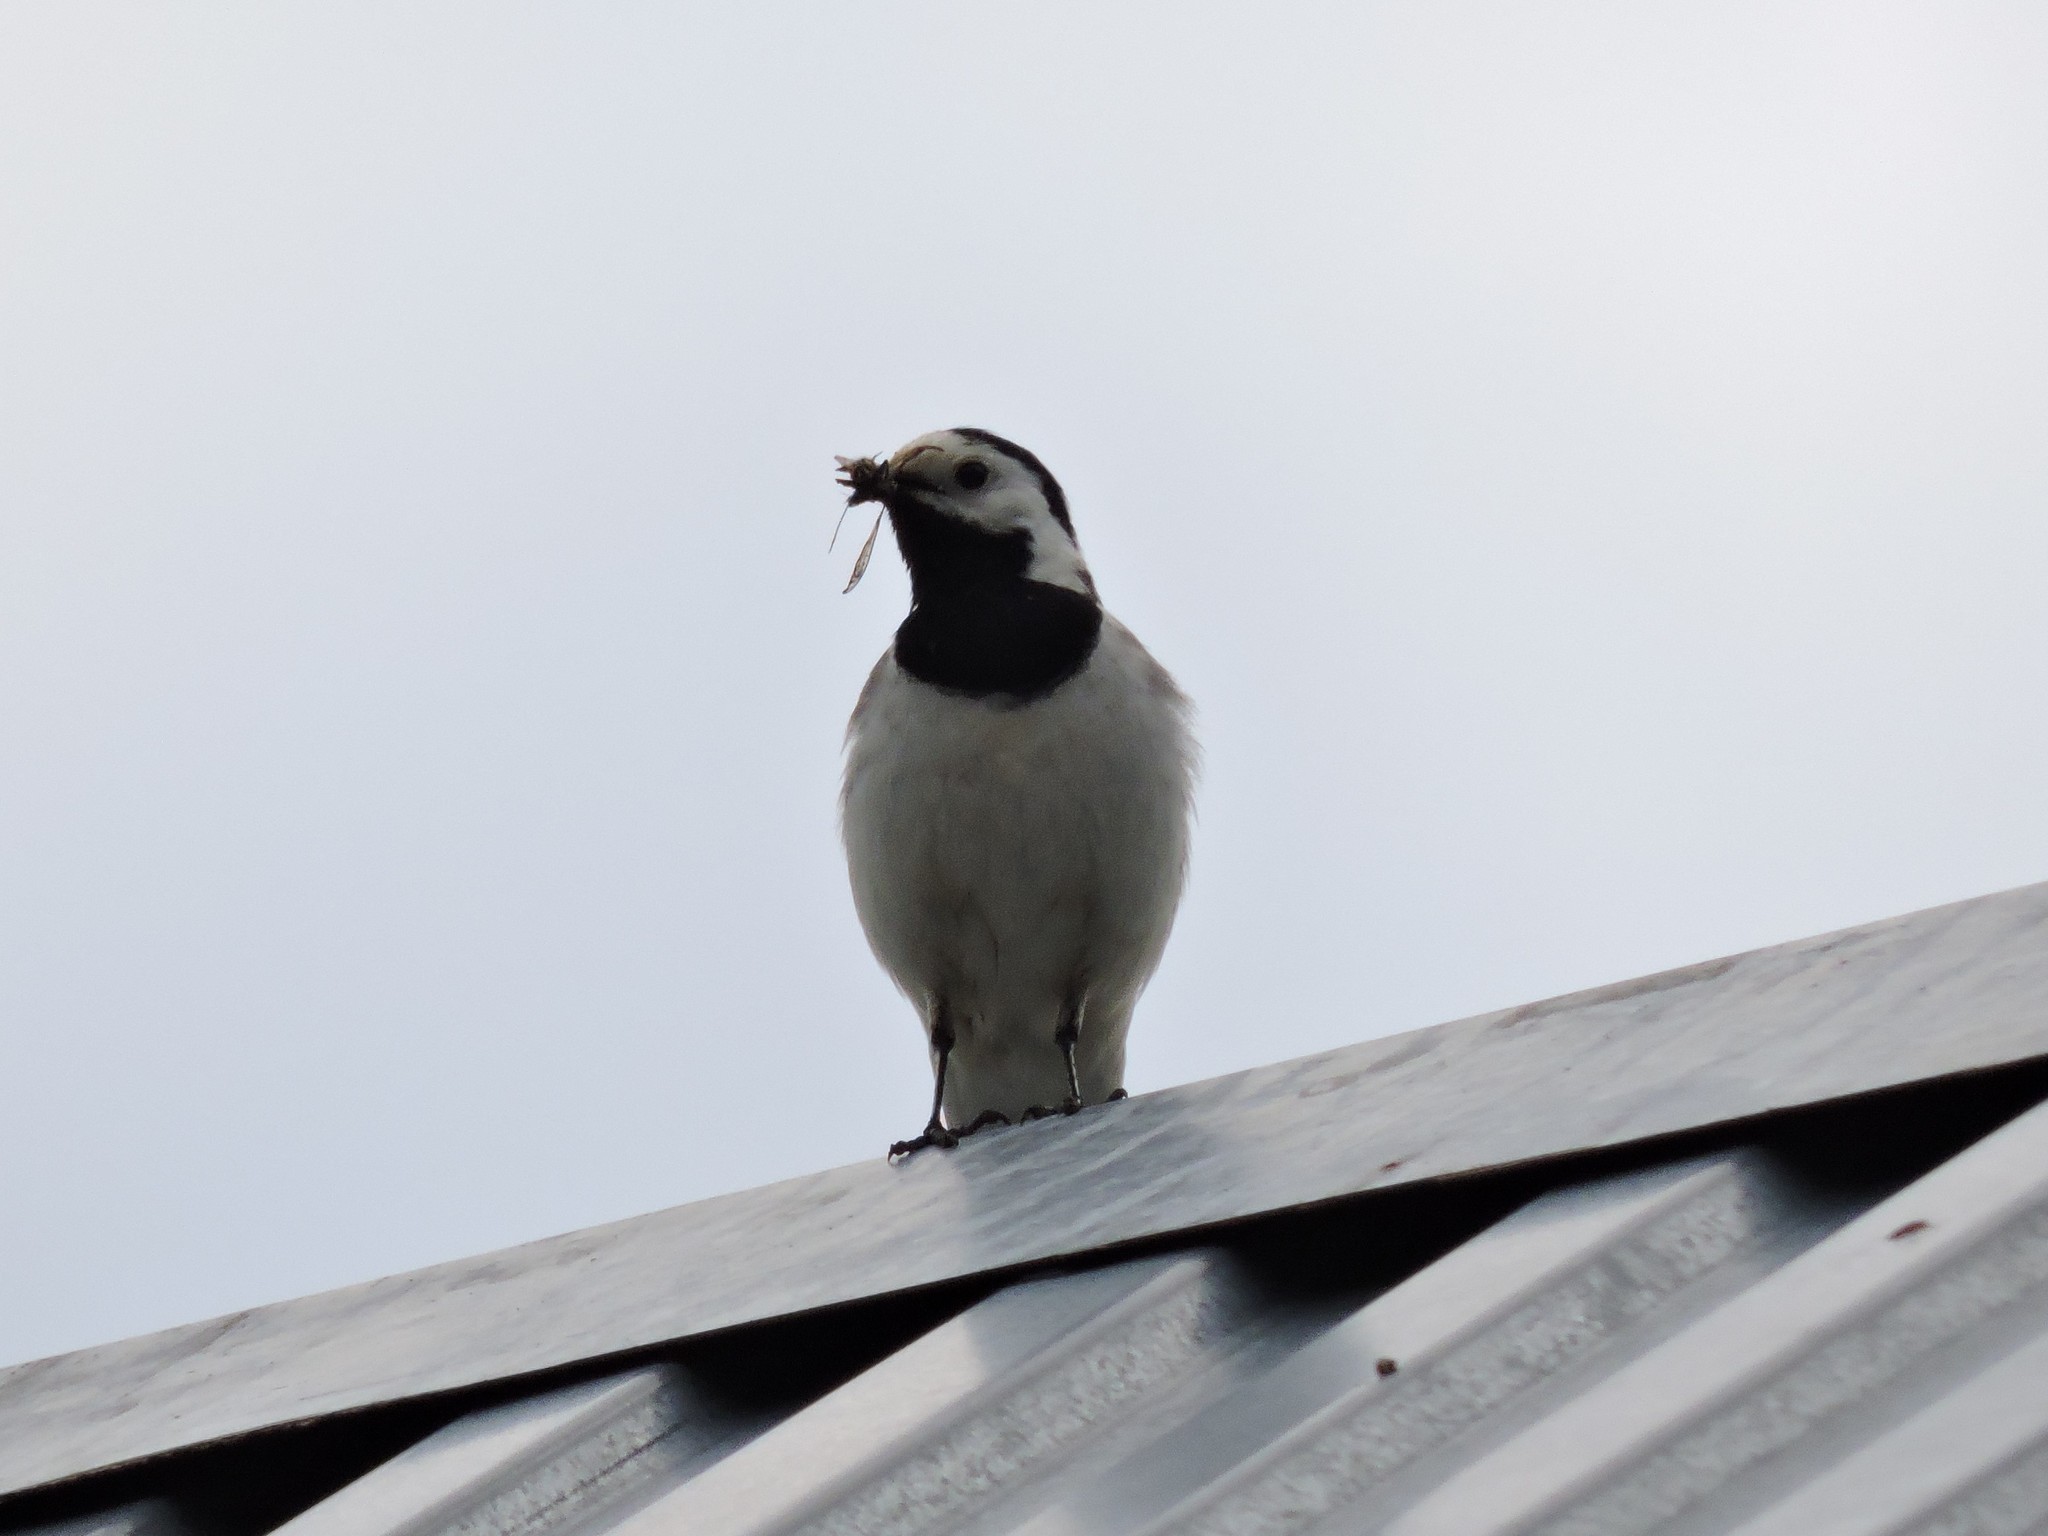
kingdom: Animalia
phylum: Chordata
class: Aves
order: Passeriformes
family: Motacillidae
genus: Motacilla
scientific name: Motacilla alba
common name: White wagtail
